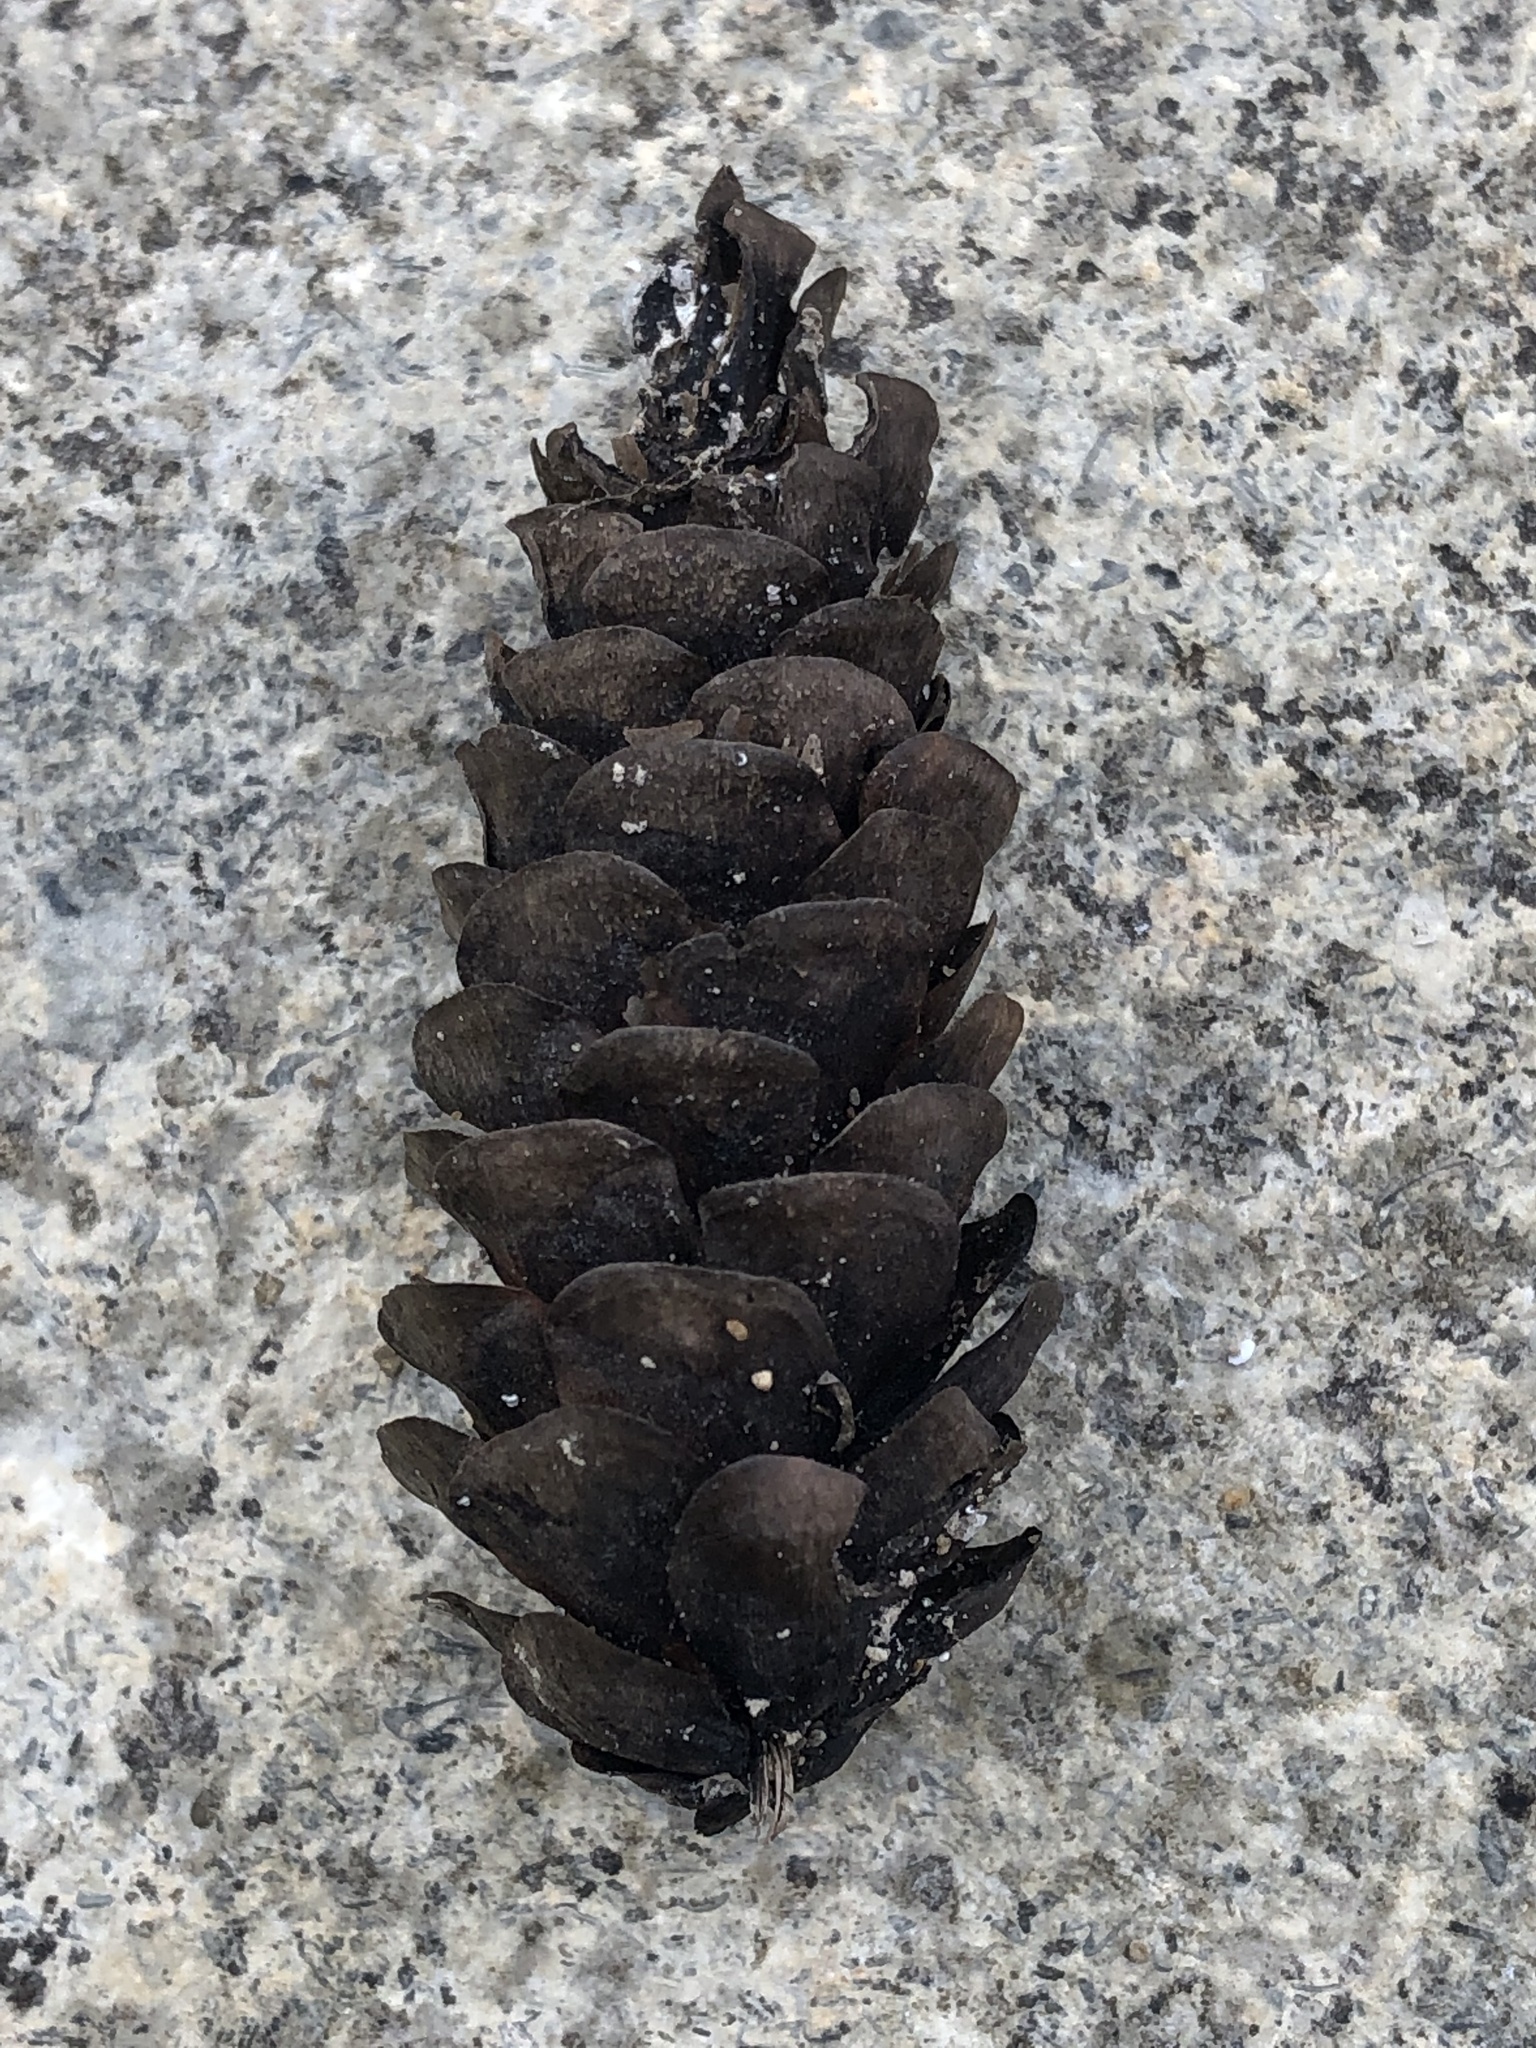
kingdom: Plantae
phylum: Tracheophyta
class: Pinopsida
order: Pinales
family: Pinaceae
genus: Picea
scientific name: Picea glauca
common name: White spruce
